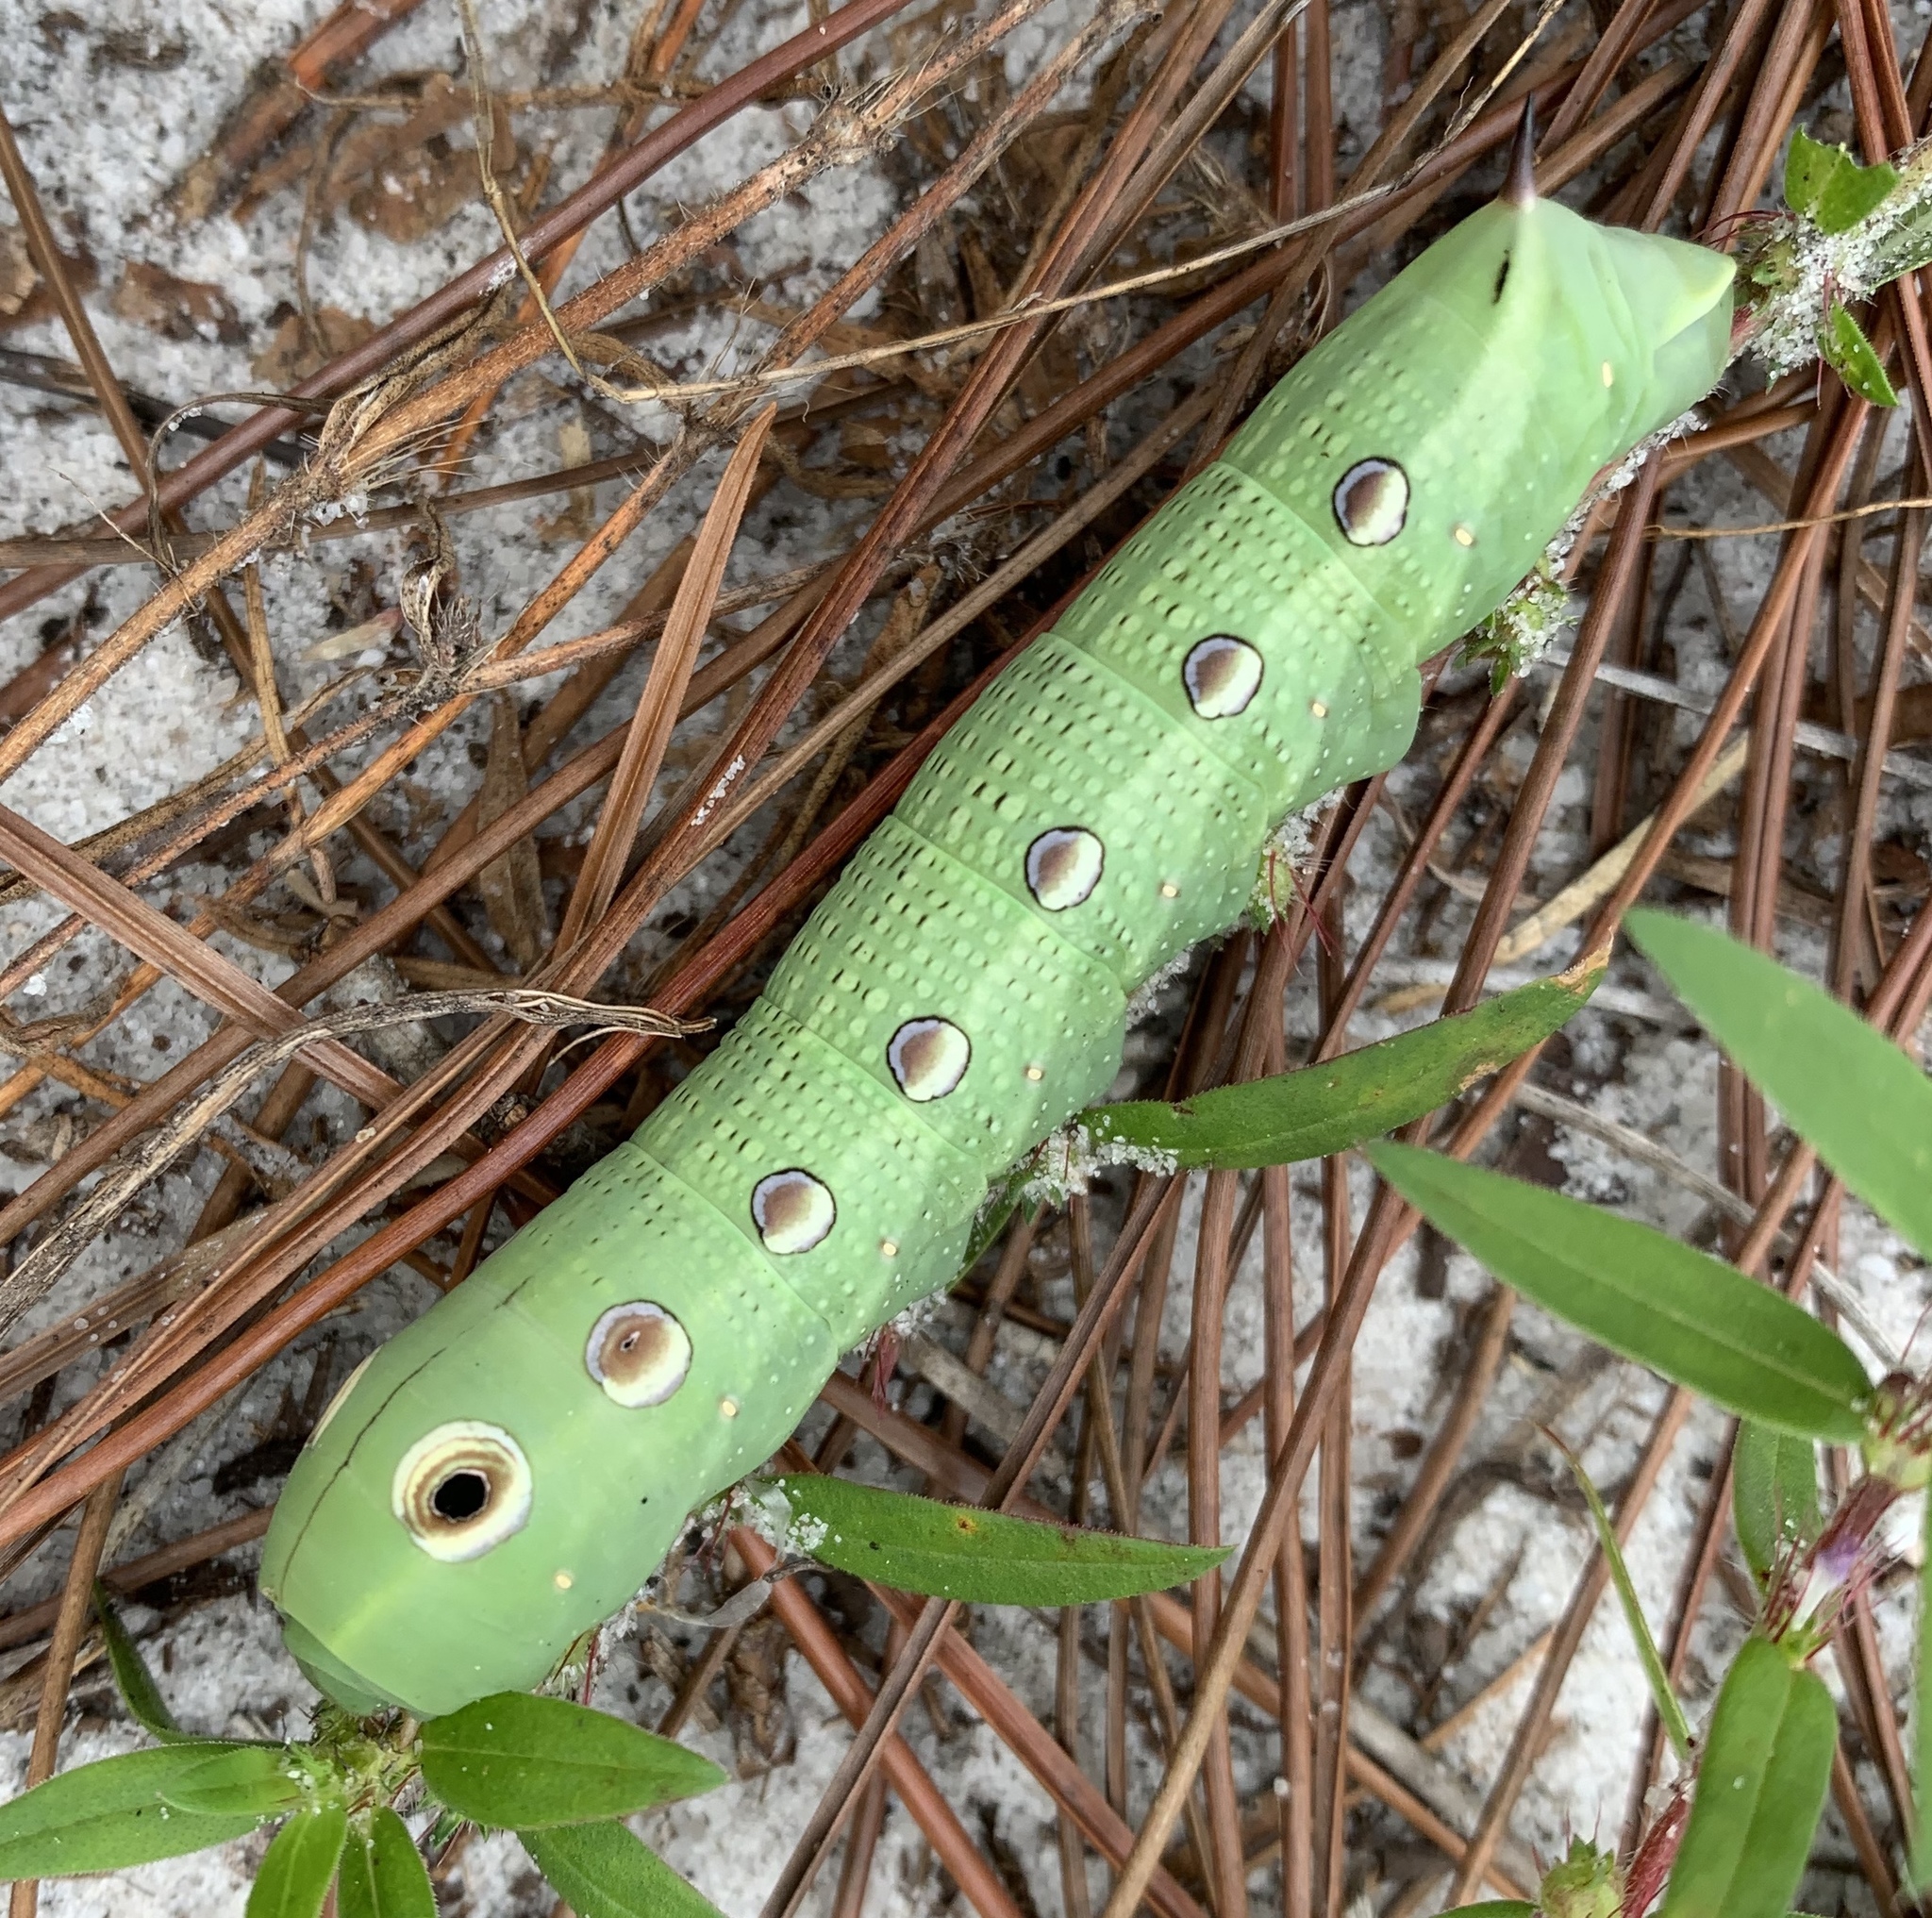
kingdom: Animalia
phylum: Arthropoda
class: Insecta
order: Lepidoptera
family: Sphingidae
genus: Xylophanes
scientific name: Xylophanes tersa
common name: Tersa sphinx
